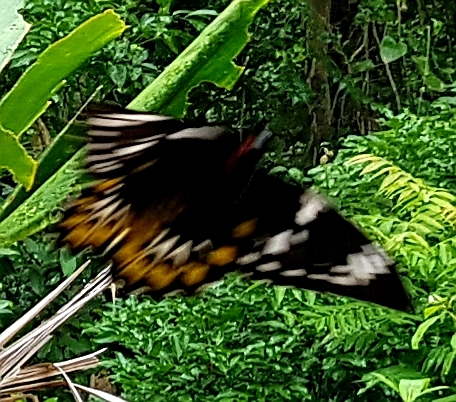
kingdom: Animalia
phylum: Arthropoda
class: Insecta
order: Lepidoptera
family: Papilionidae
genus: Ornithoptera
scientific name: Ornithoptera euphorion
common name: Cairns birdwing
